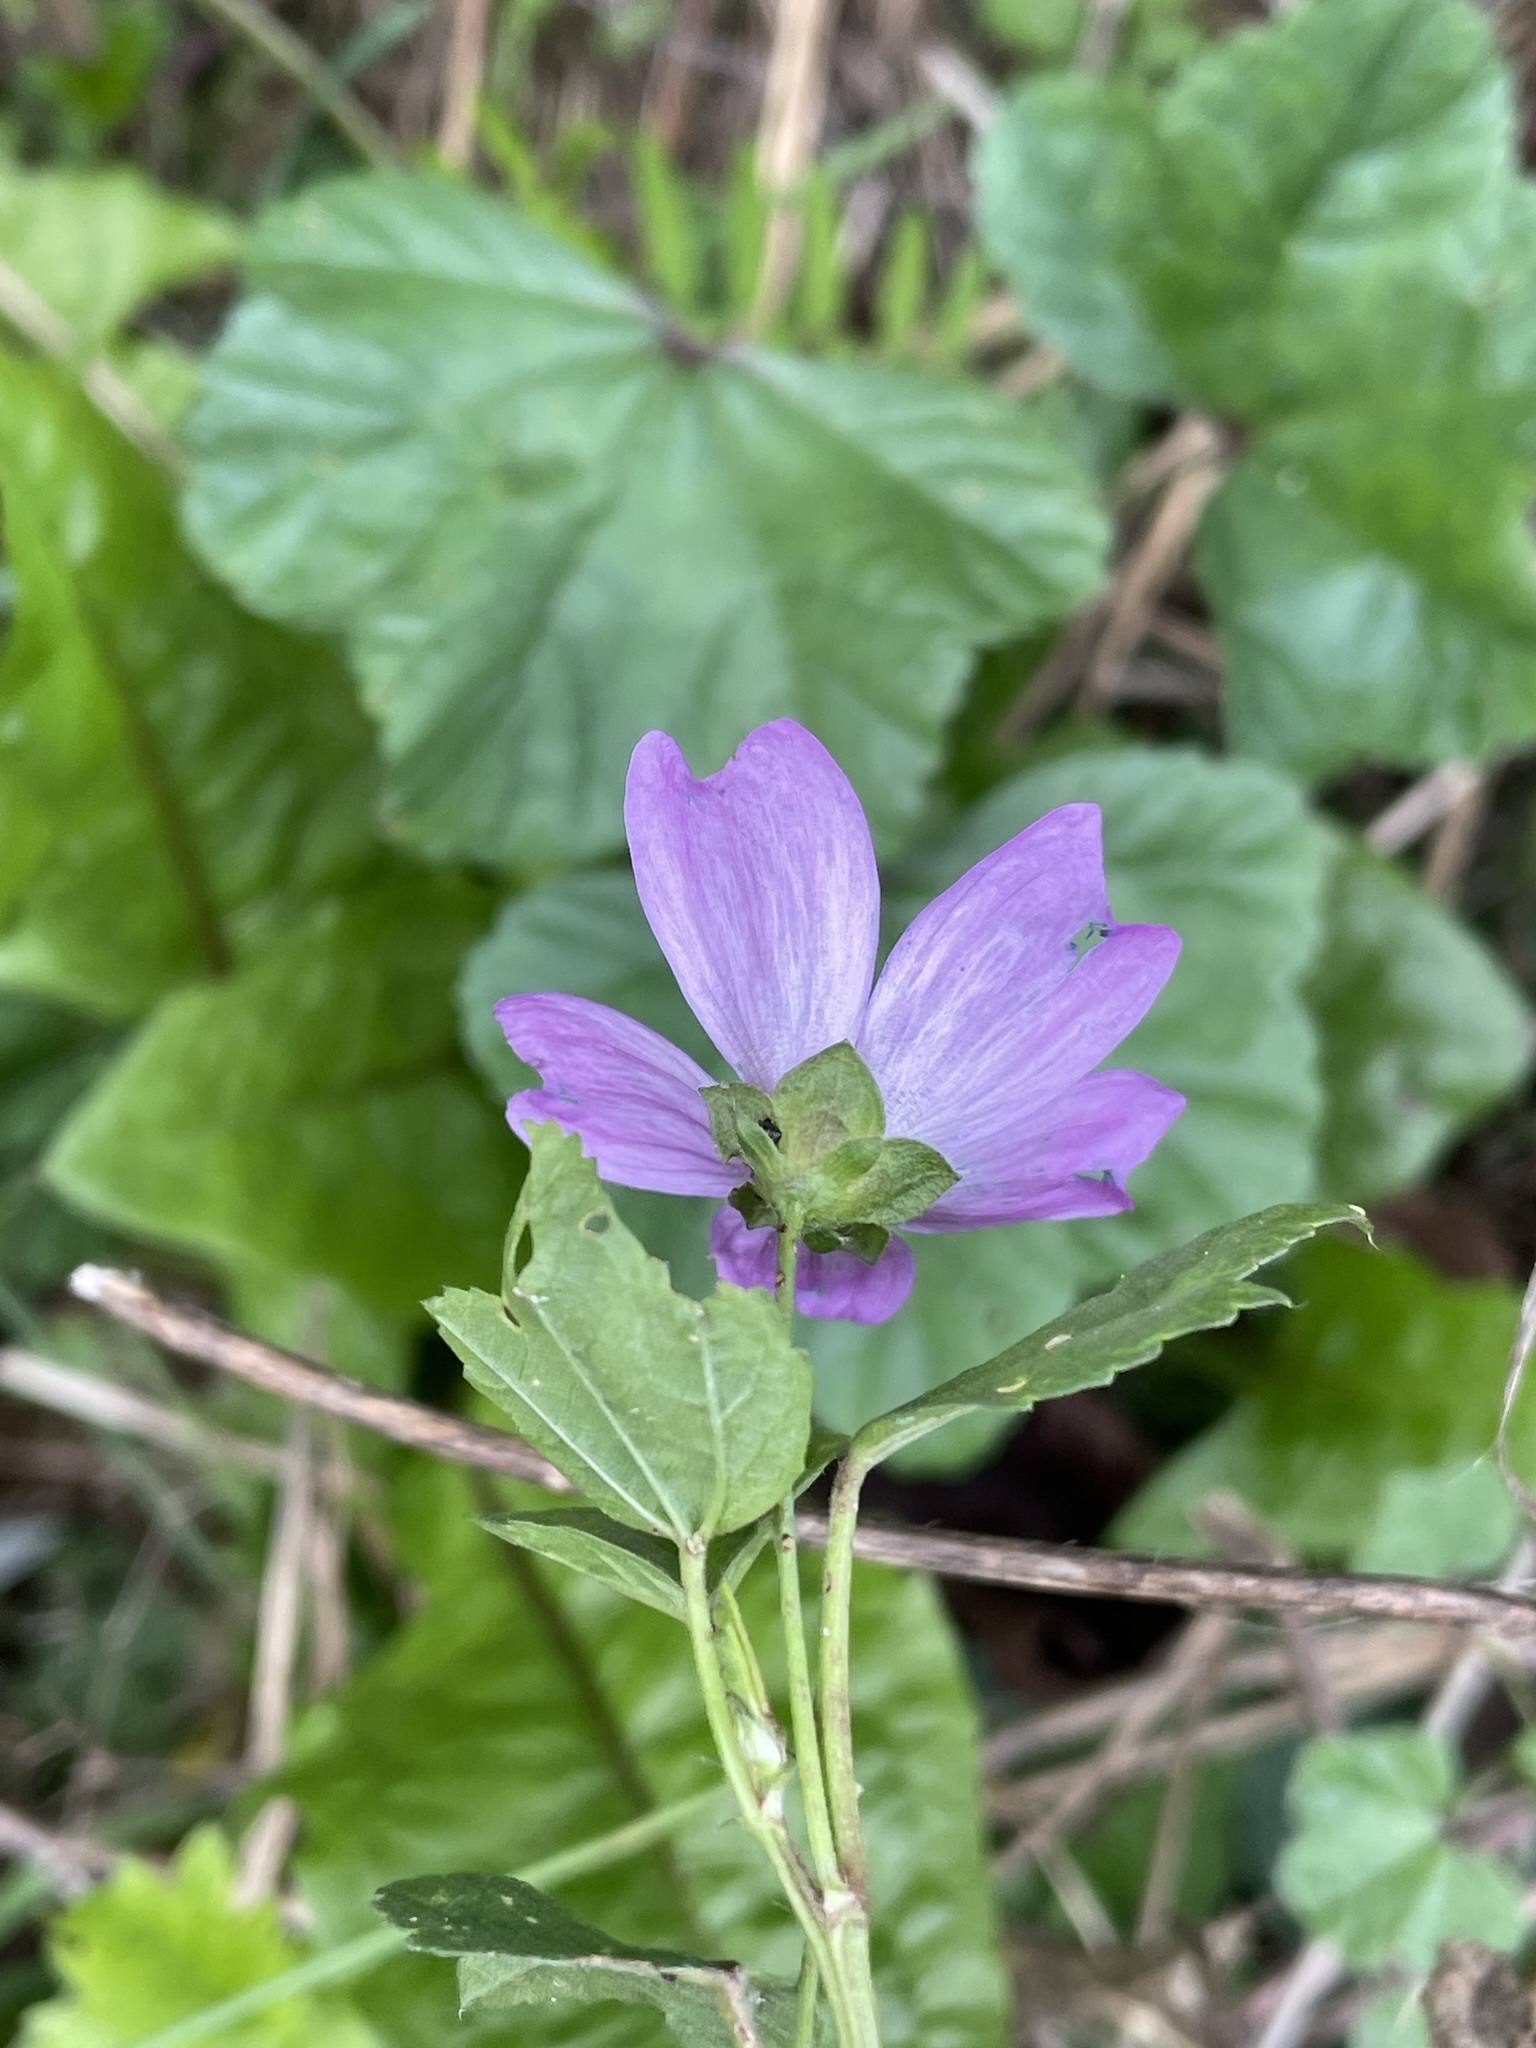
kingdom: Plantae
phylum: Tracheophyta
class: Magnoliopsida
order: Malvales
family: Malvaceae
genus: Malva
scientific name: Malva sylvestris
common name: Common mallow
